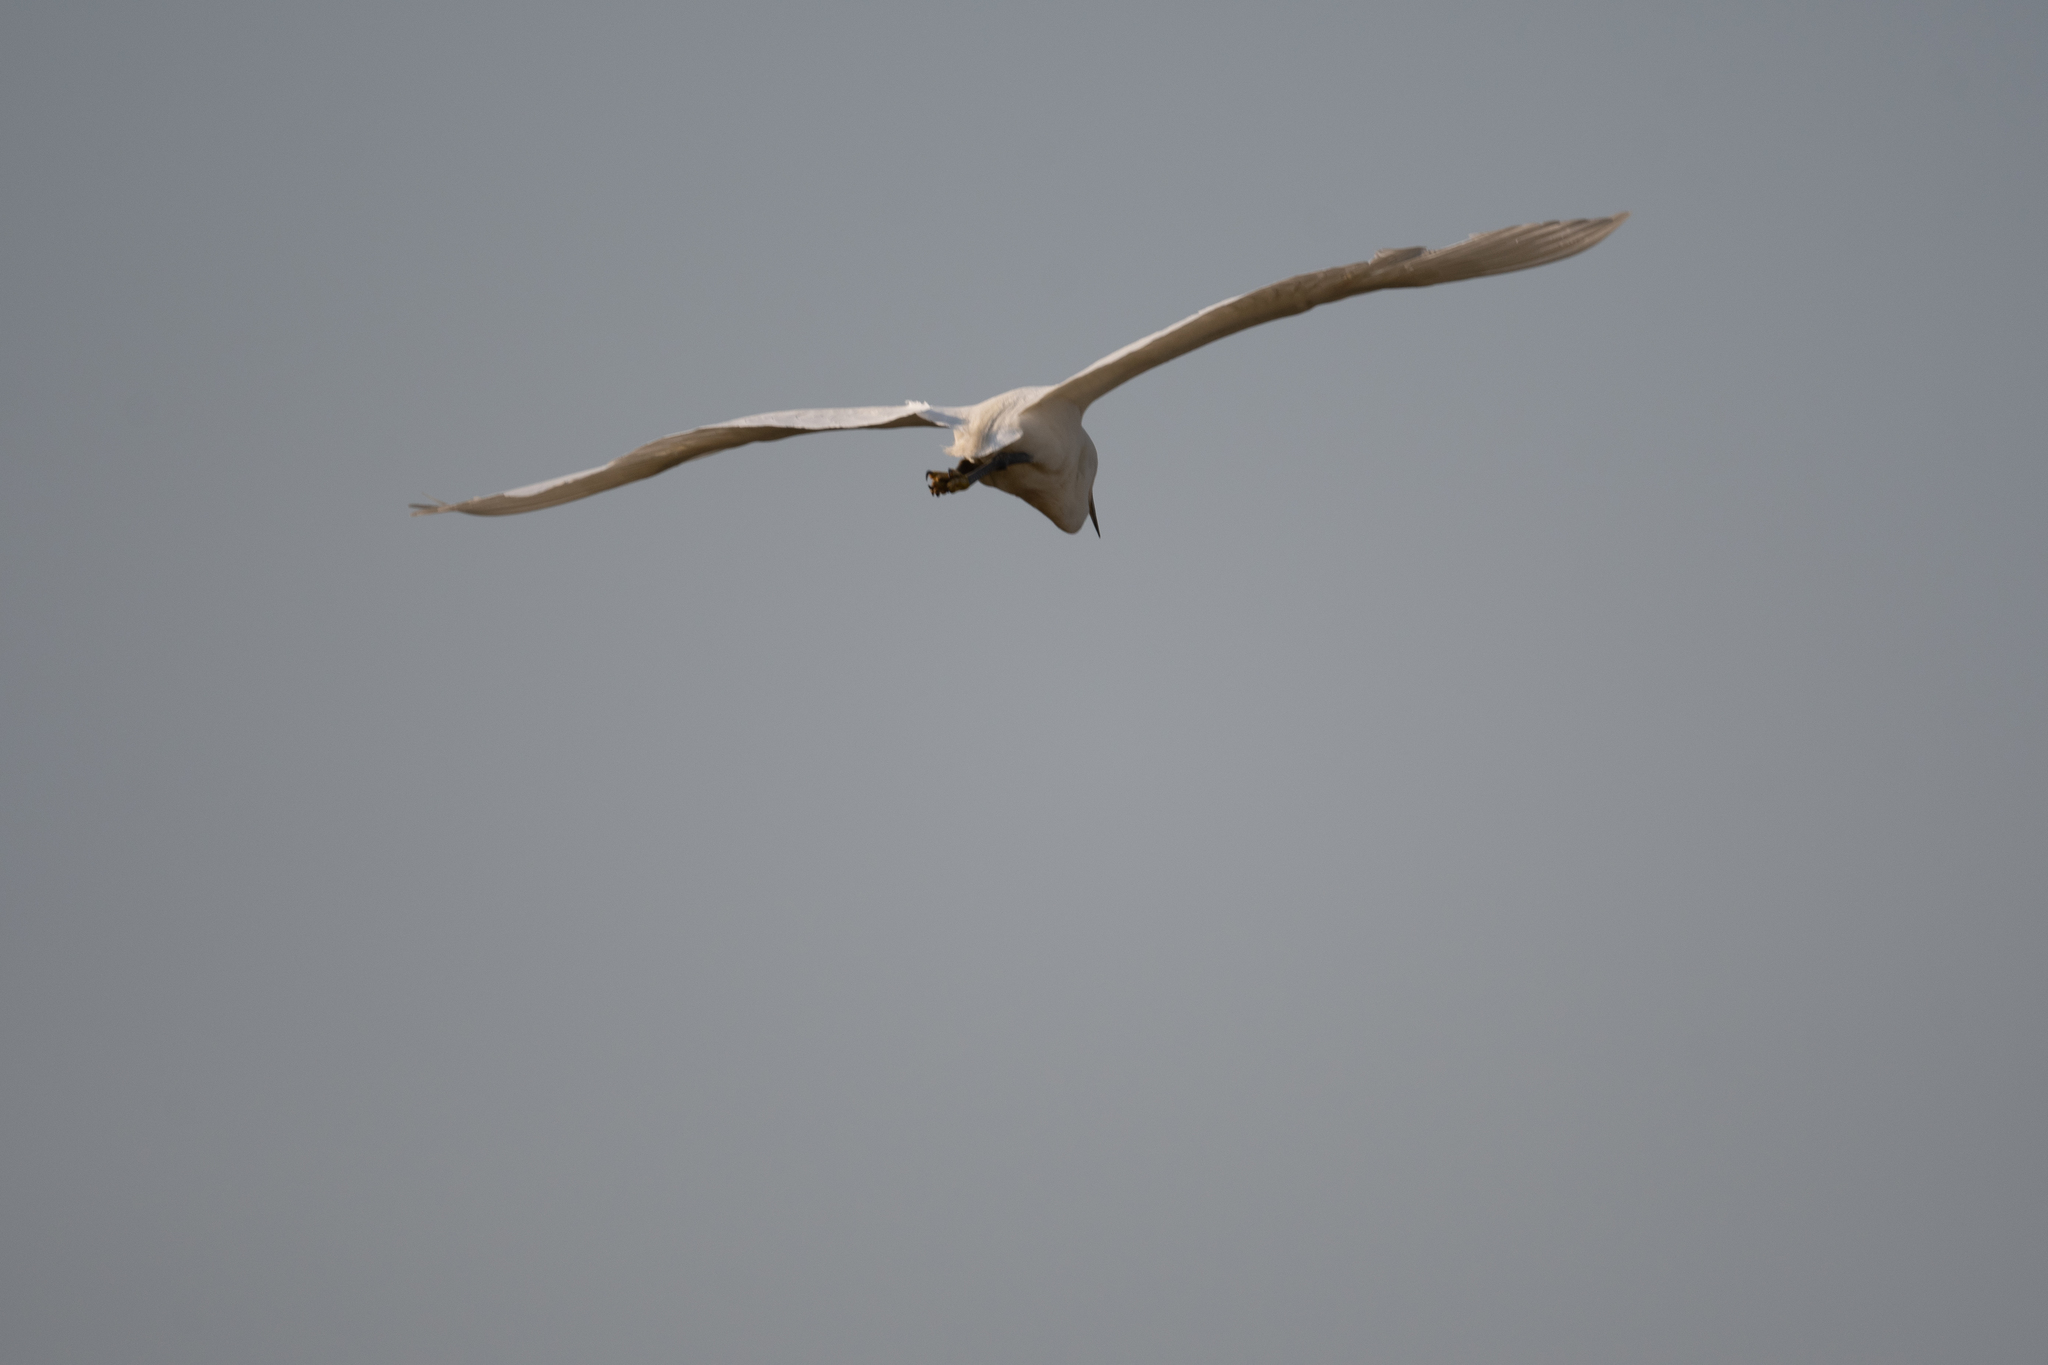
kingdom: Animalia
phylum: Chordata
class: Aves
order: Pelecaniformes
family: Ardeidae
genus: Egretta
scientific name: Egretta thula
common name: Snowy egret
